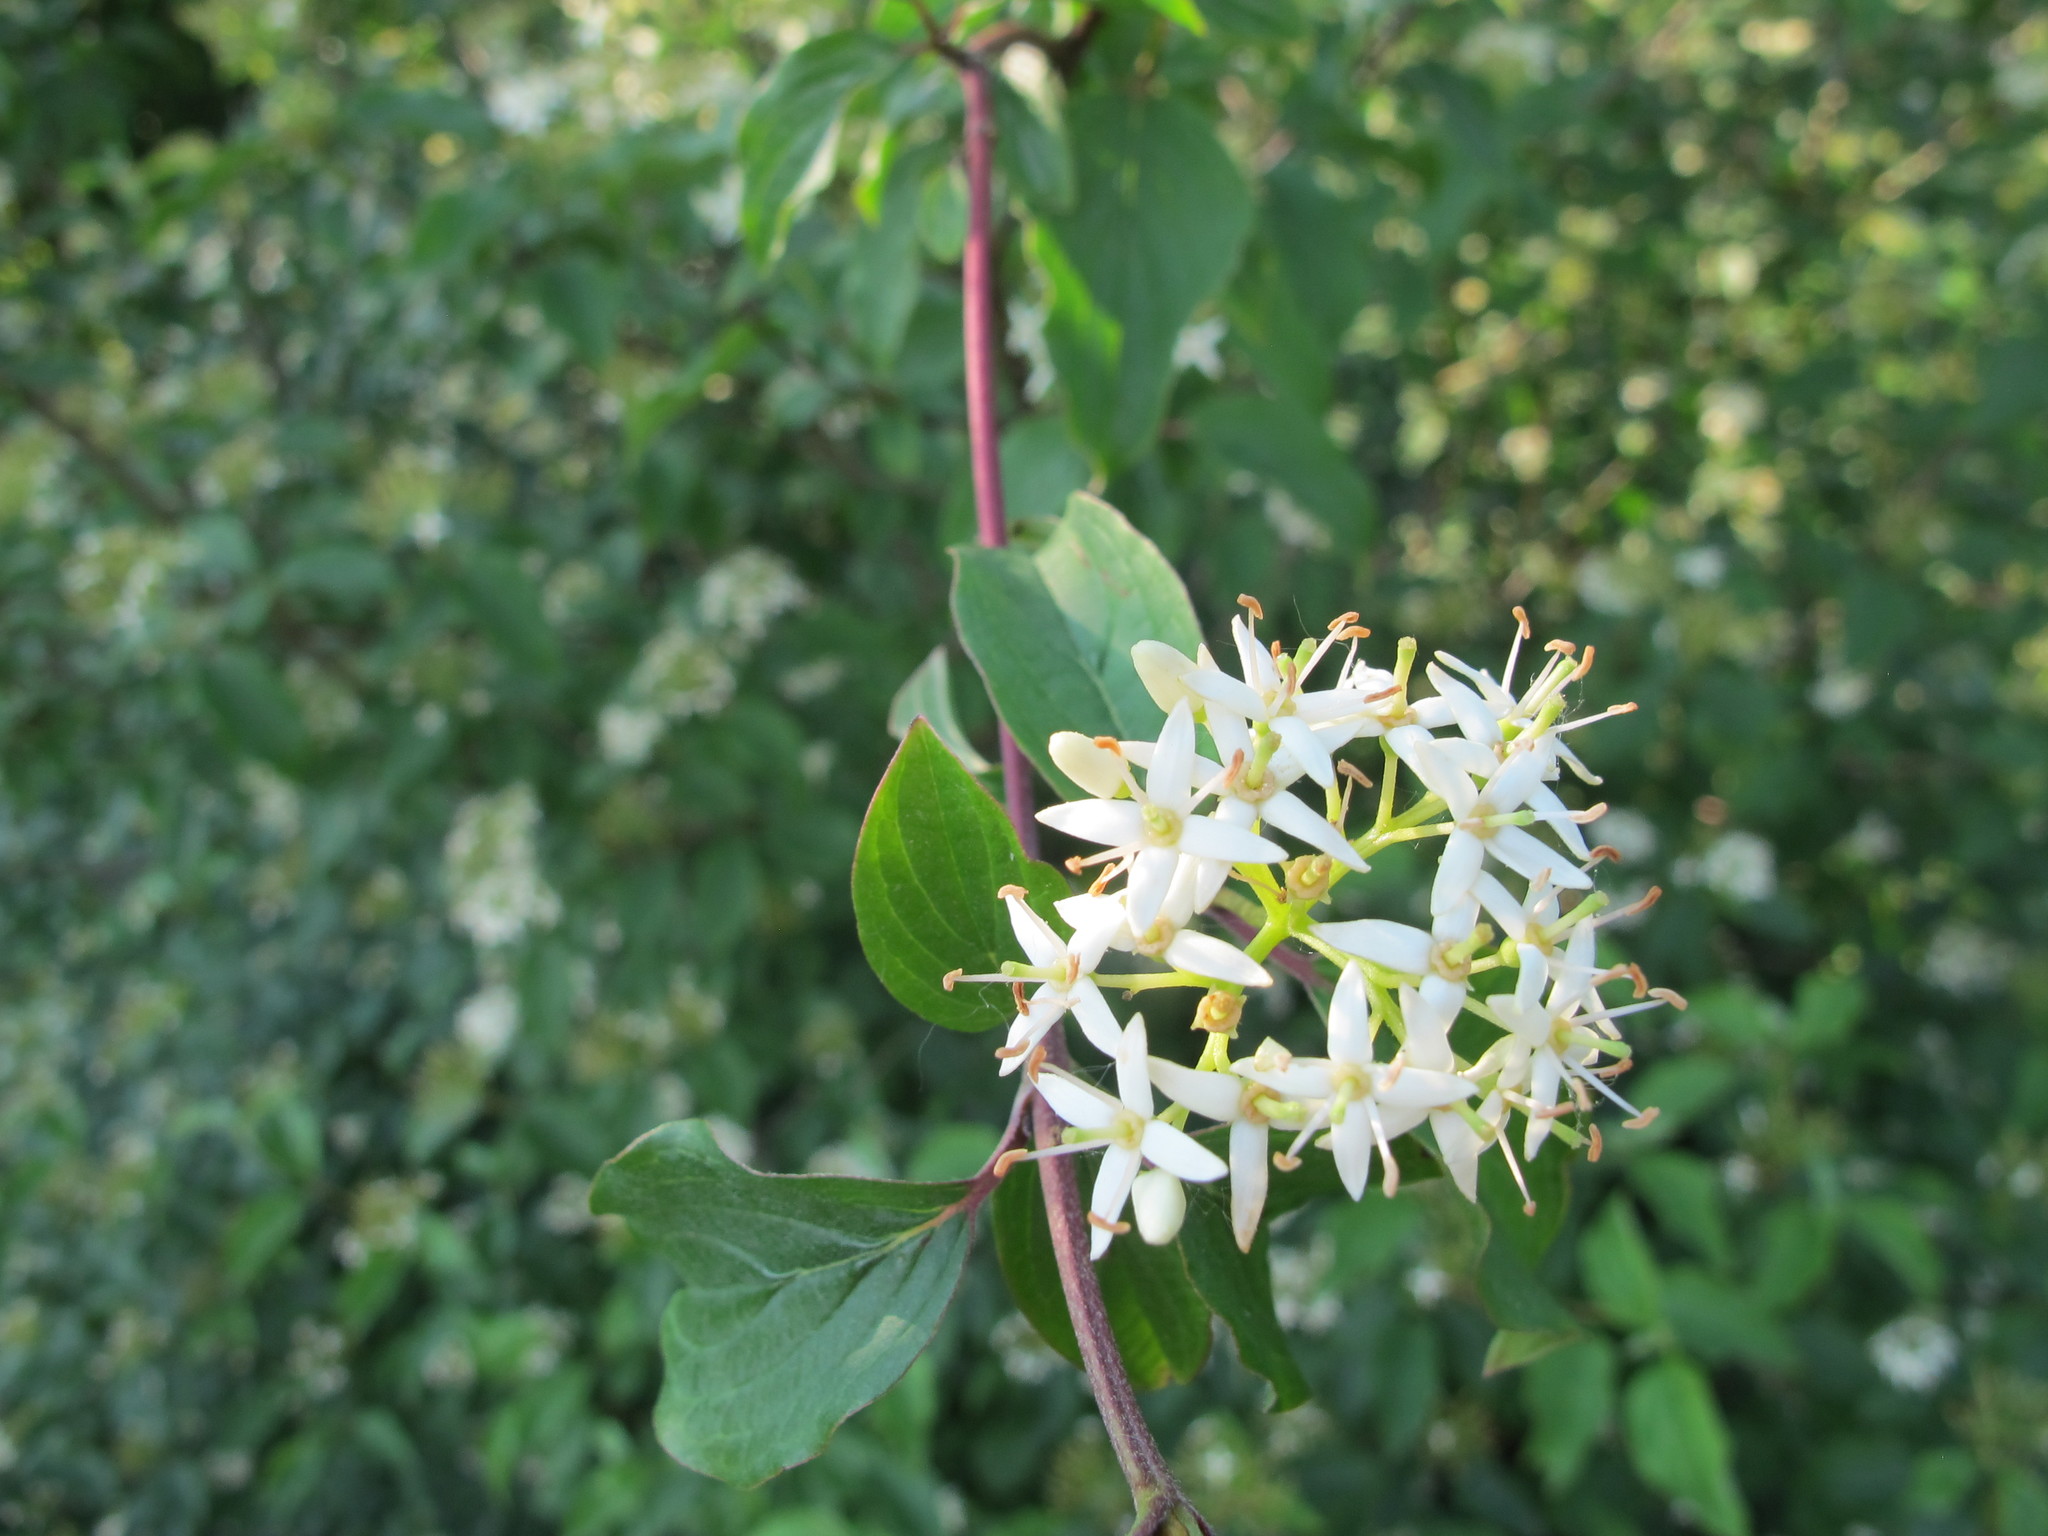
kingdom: Plantae
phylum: Tracheophyta
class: Magnoliopsida
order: Cornales
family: Cornaceae
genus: Cornus
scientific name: Cornus sanguinea
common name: Dogwood
